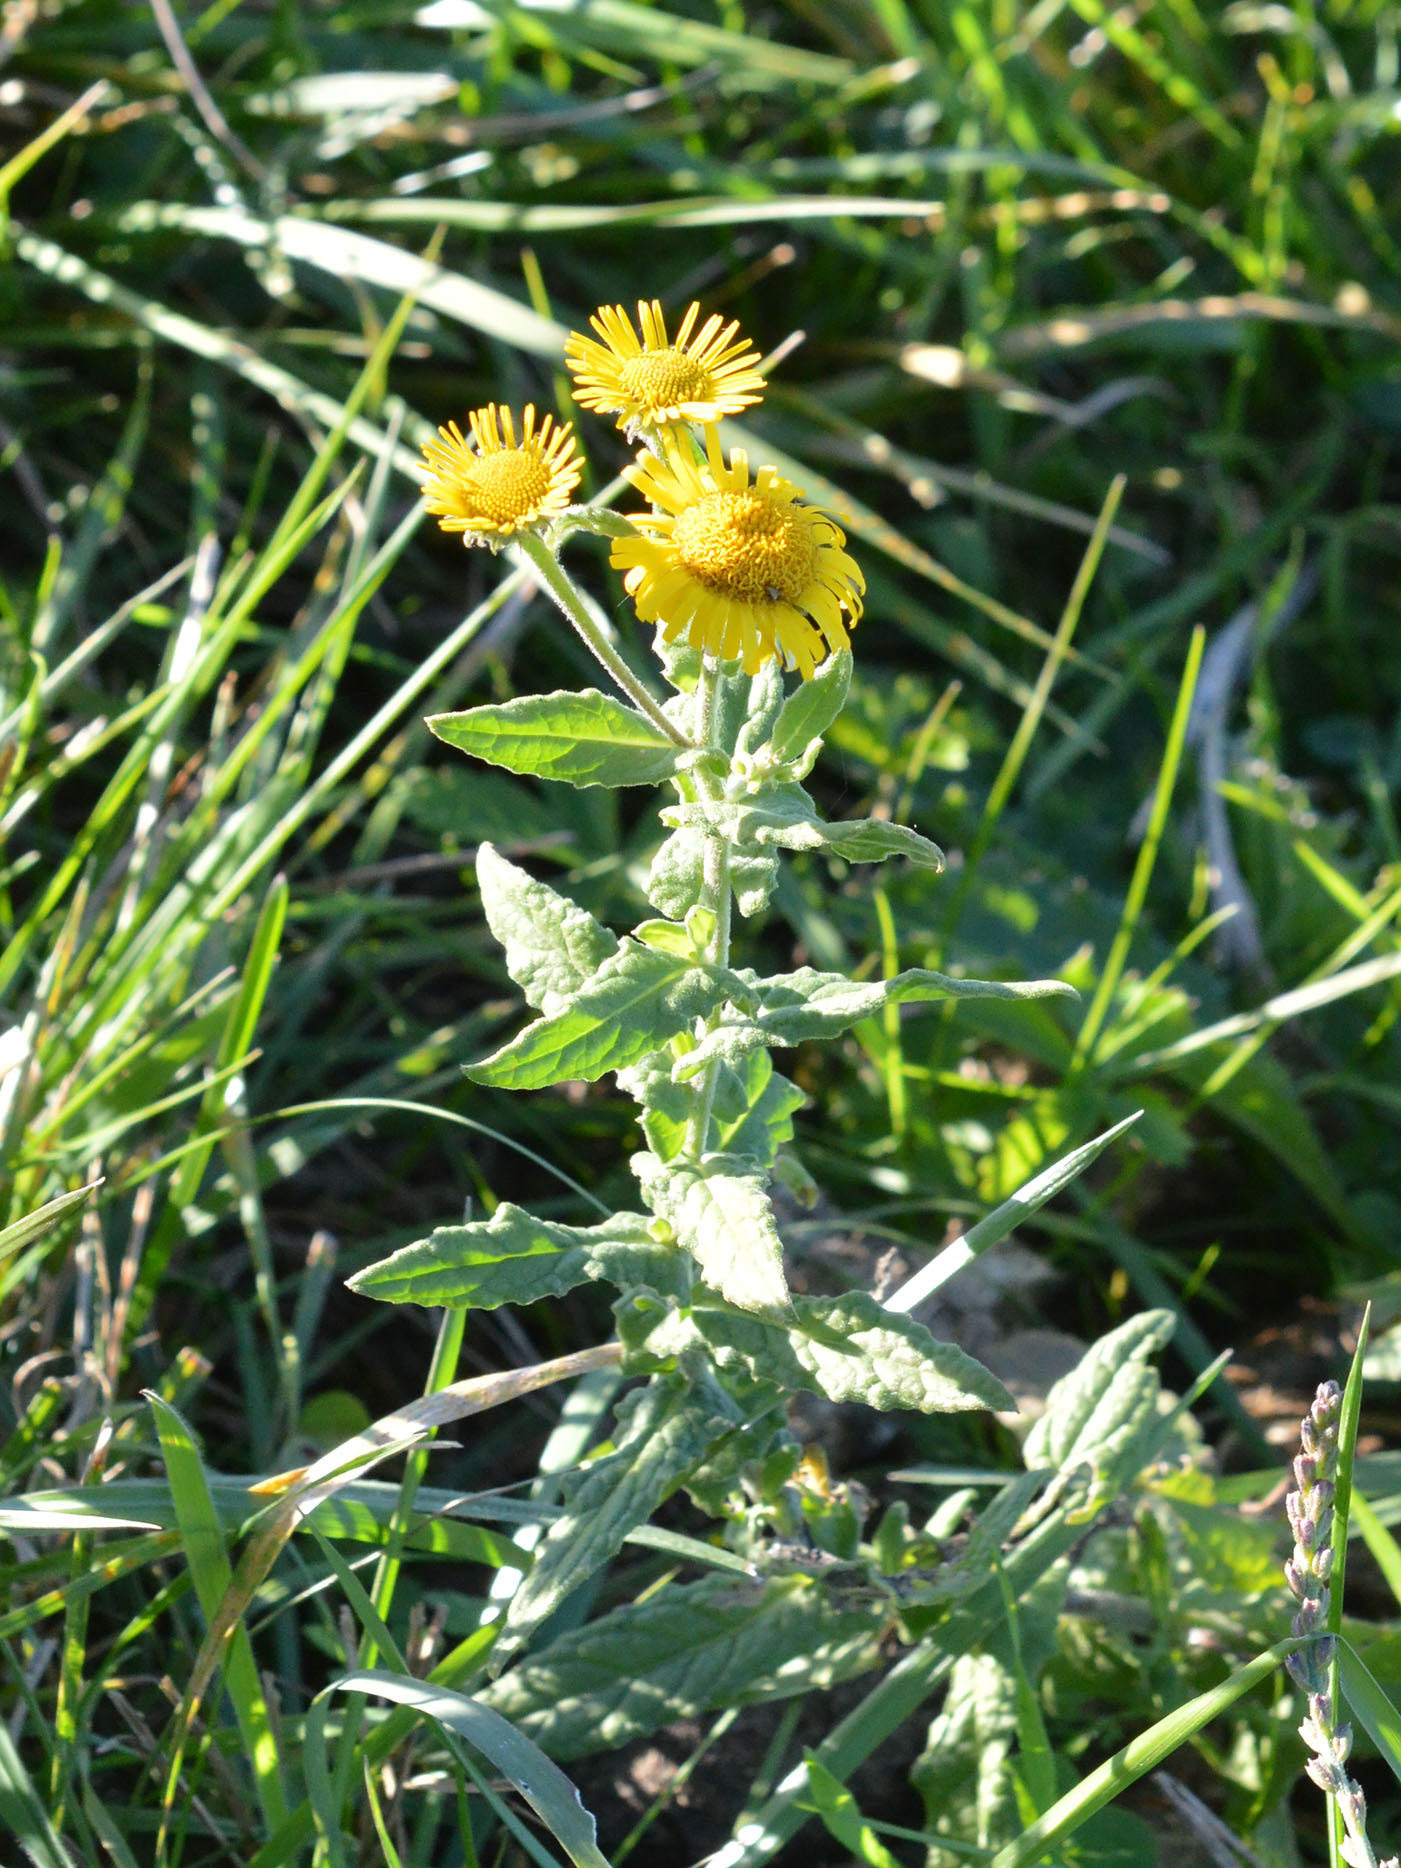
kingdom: Plantae
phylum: Tracheophyta
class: Magnoliopsida
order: Asterales
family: Asteraceae
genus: Pulicaria
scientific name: Pulicaria dysenterica
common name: Common fleabane
